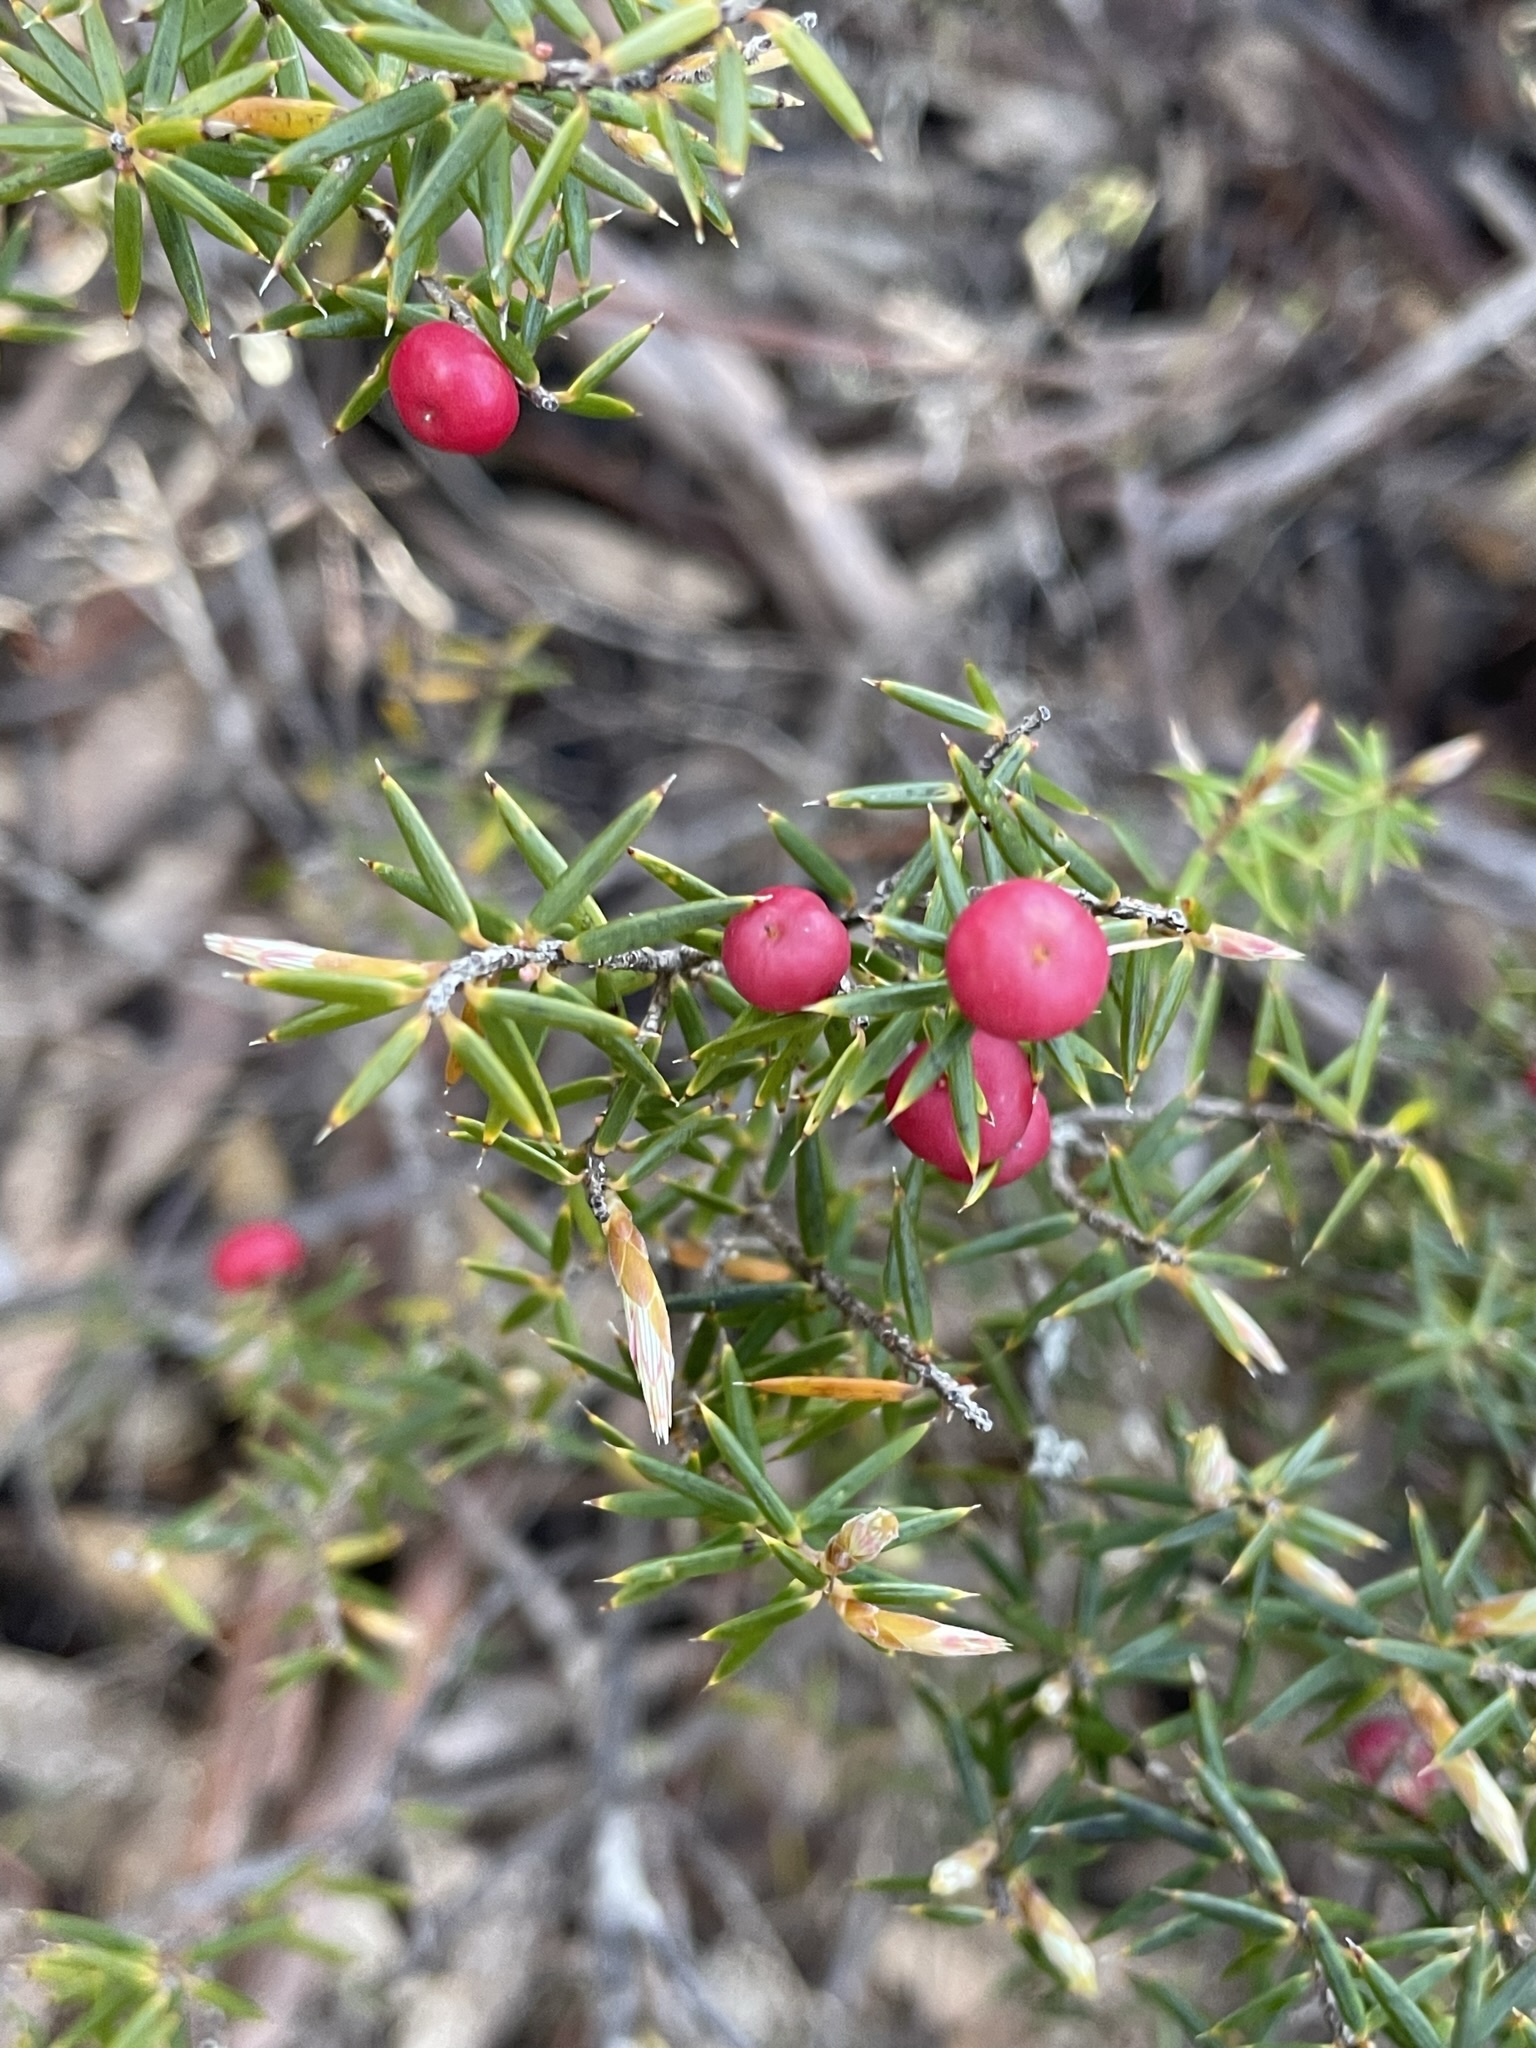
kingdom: Plantae
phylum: Tracheophyta
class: Magnoliopsida
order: Ericales
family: Ericaceae
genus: Leptecophylla
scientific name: Leptecophylla parvifolia
